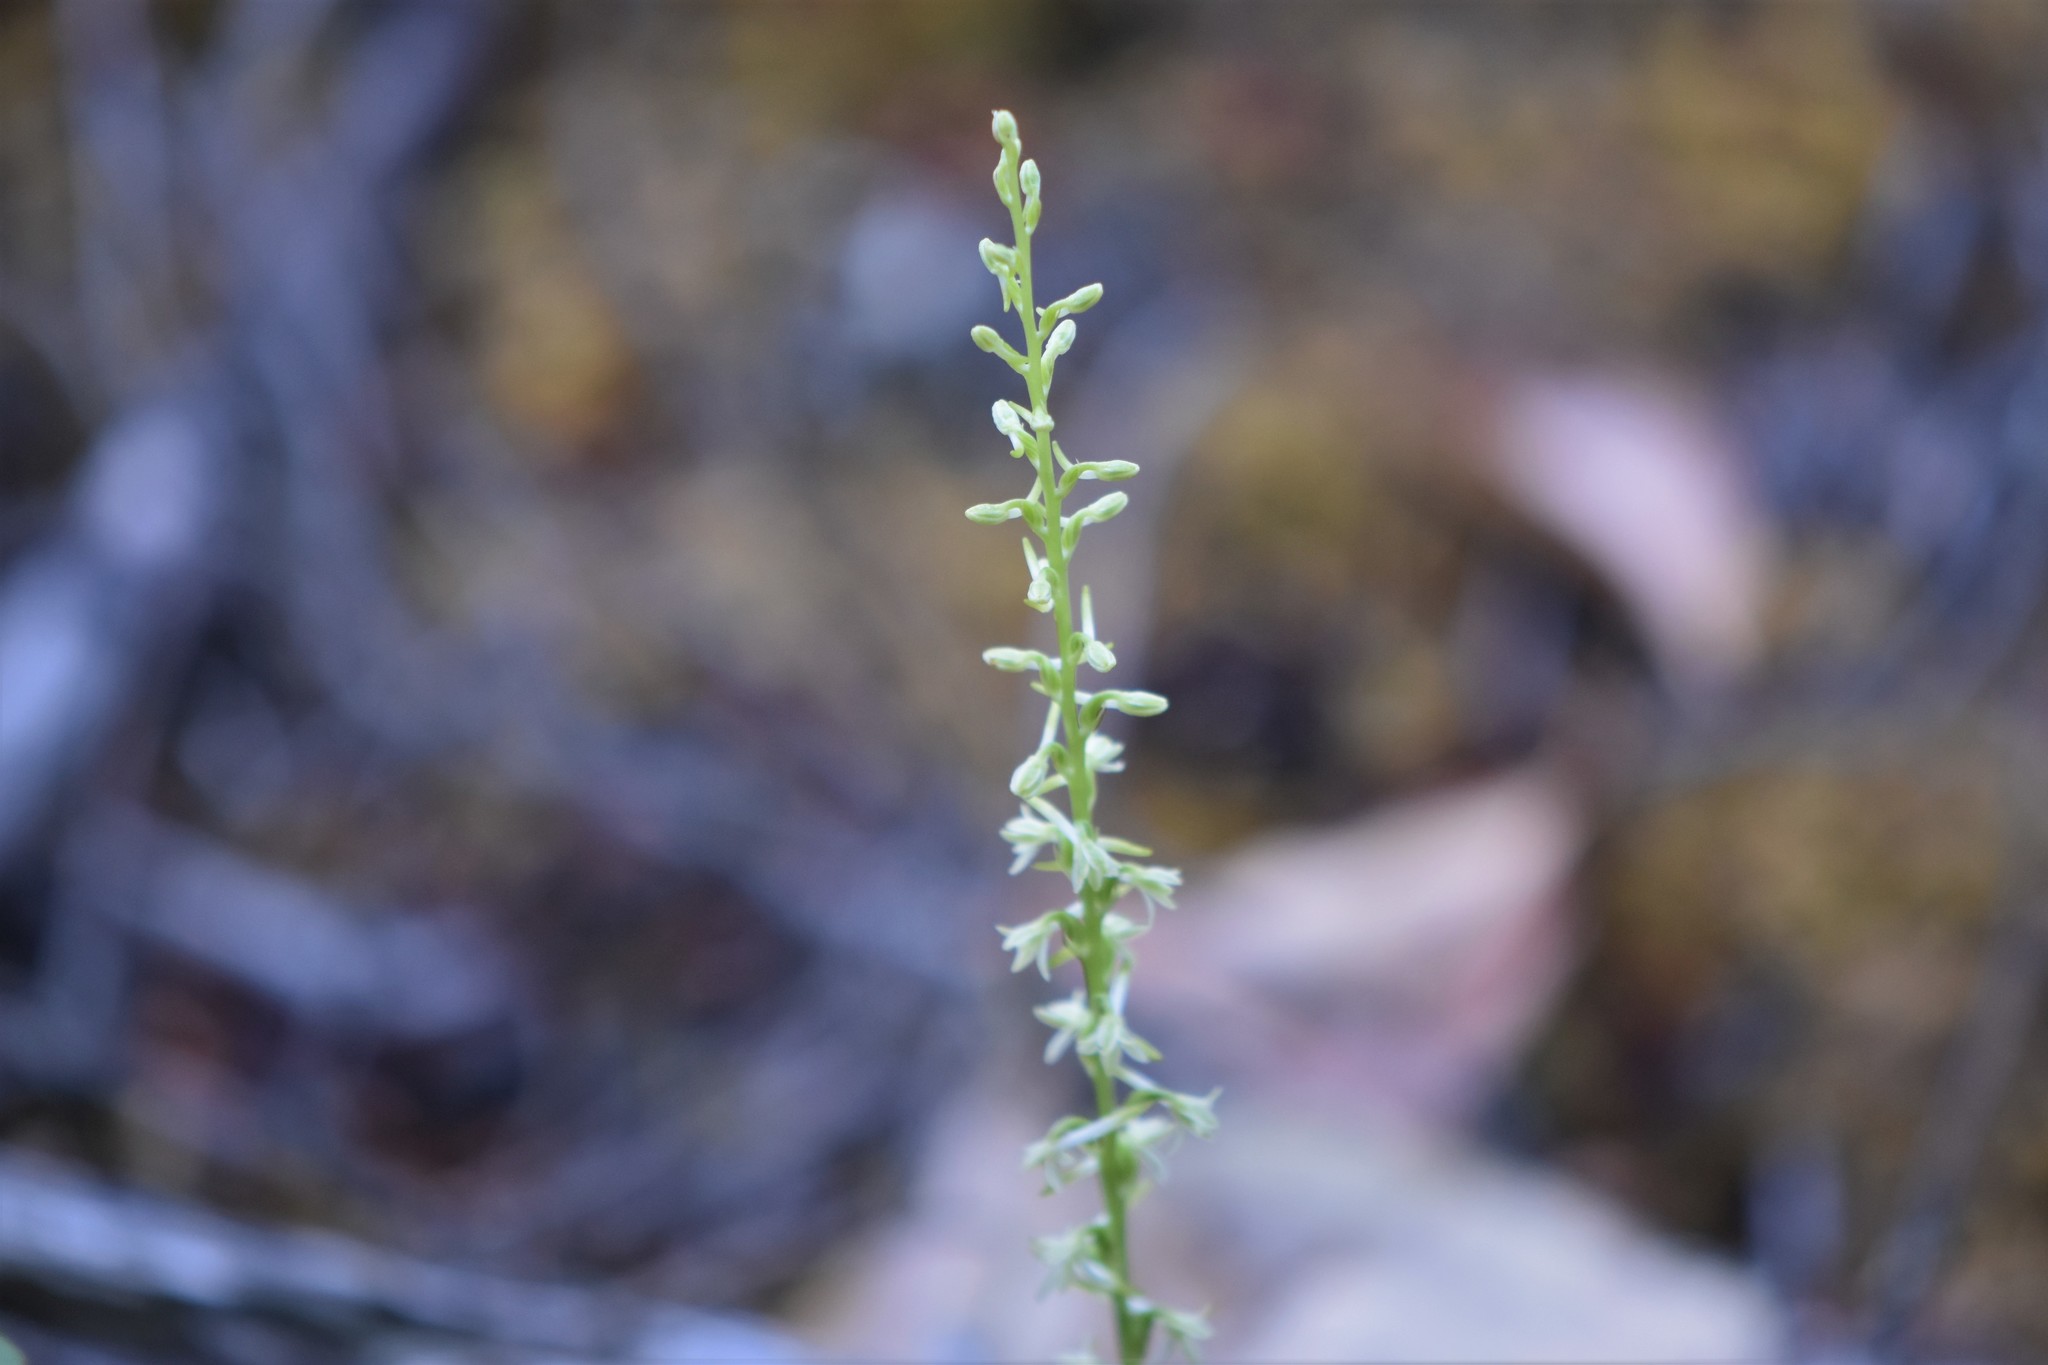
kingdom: Plantae
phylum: Tracheophyta
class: Liliopsida
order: Asparagales
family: Orchidaceae
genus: Platanthera
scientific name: Platanthera transversa
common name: Royal rein orchid
